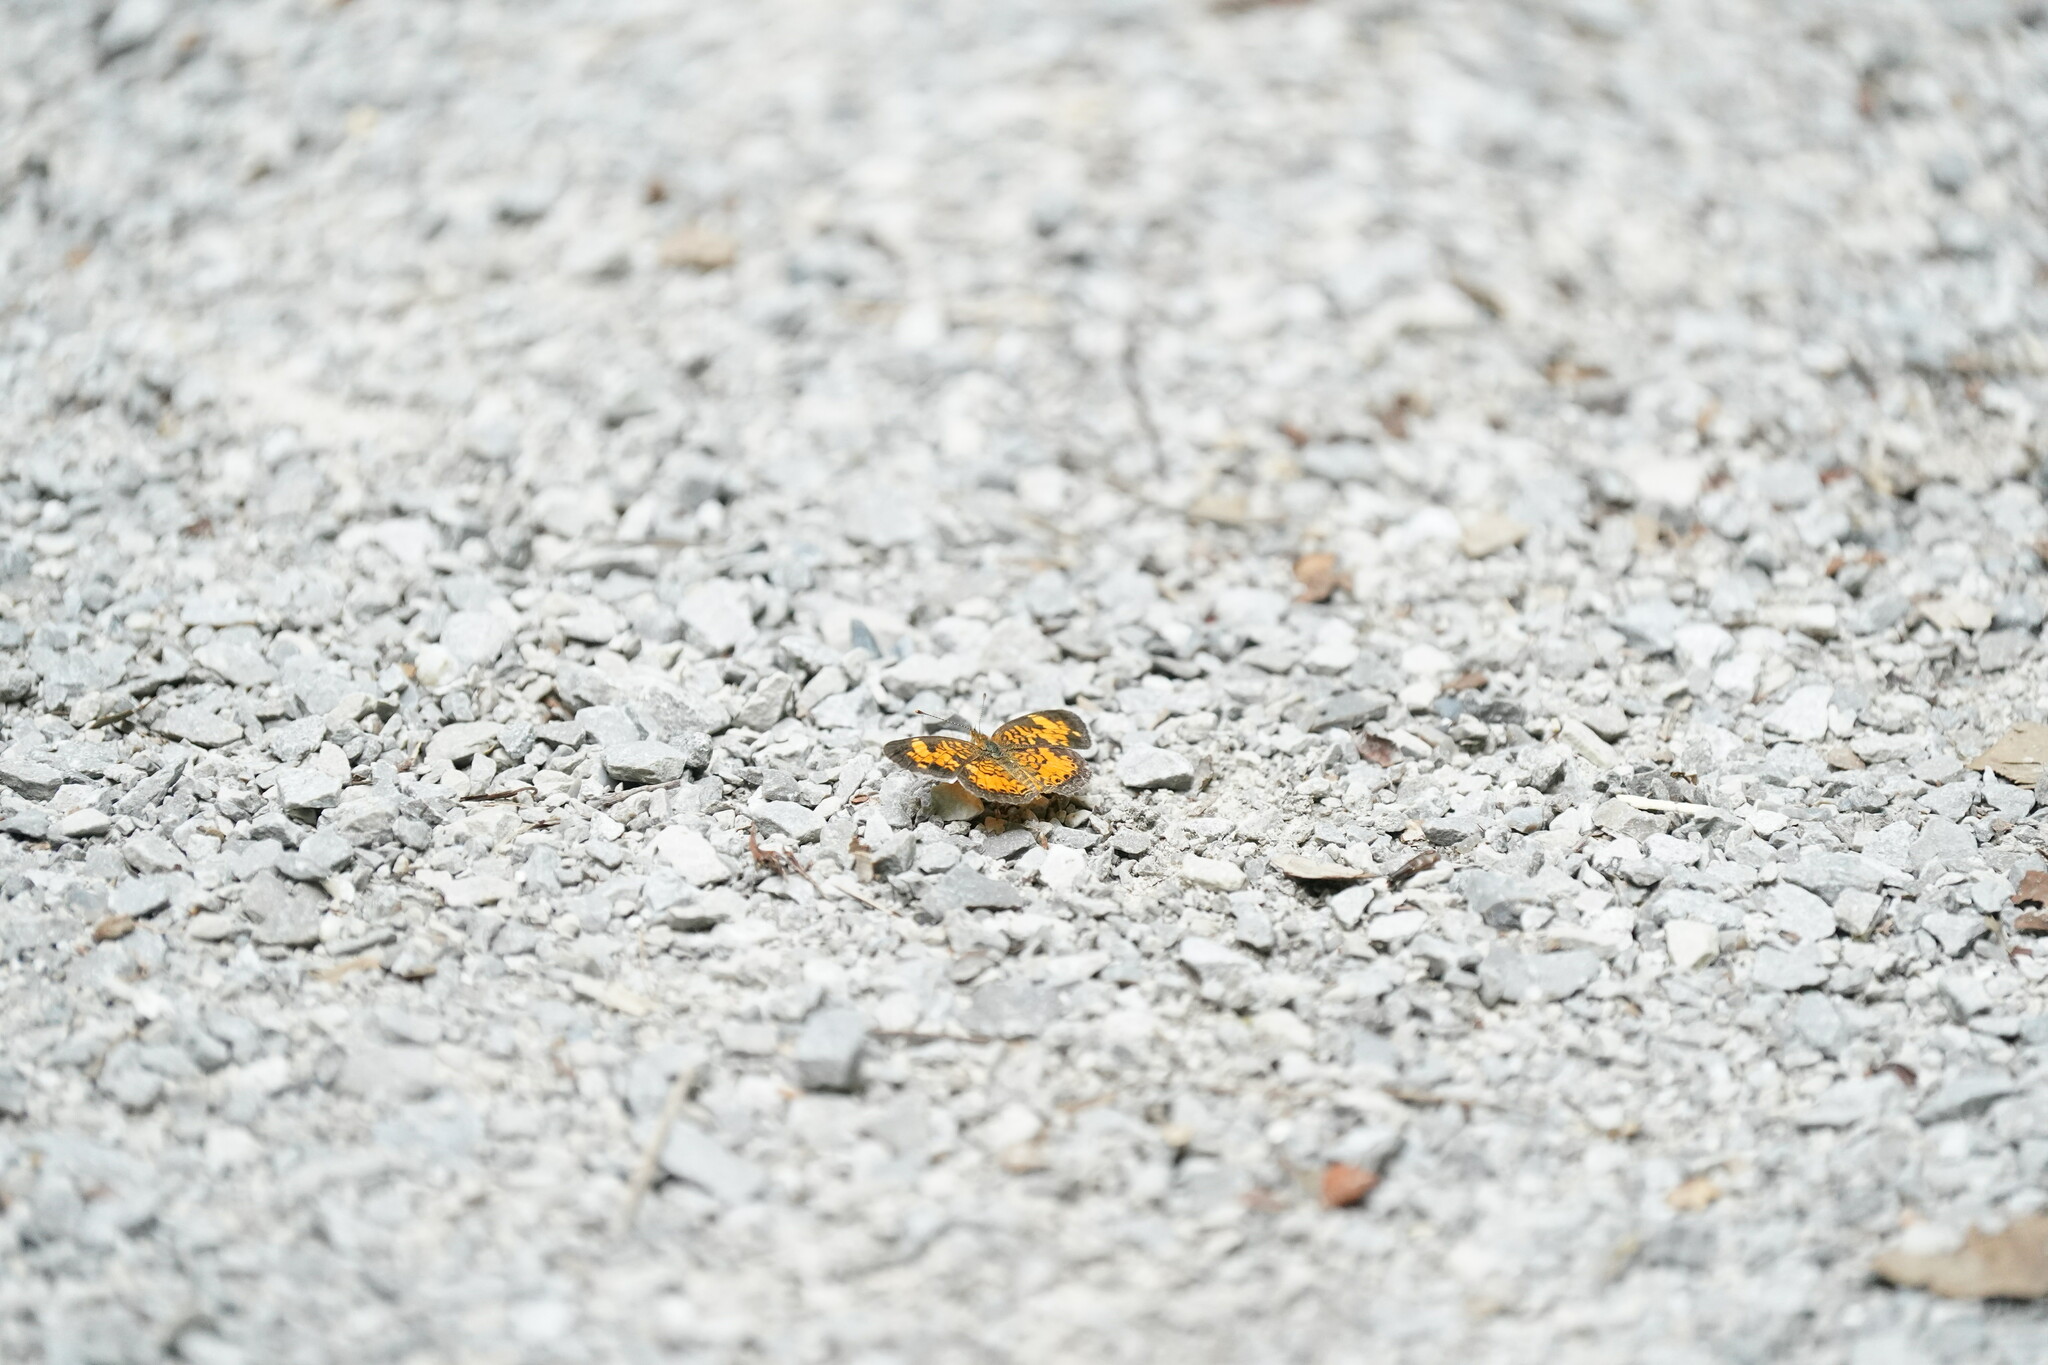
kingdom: Animalia
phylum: Arthropoda
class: Insecta
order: Lepidoptera
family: Nymphalidae
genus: Phyciodes
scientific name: Phyciodes tharos
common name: Pearl crescent
